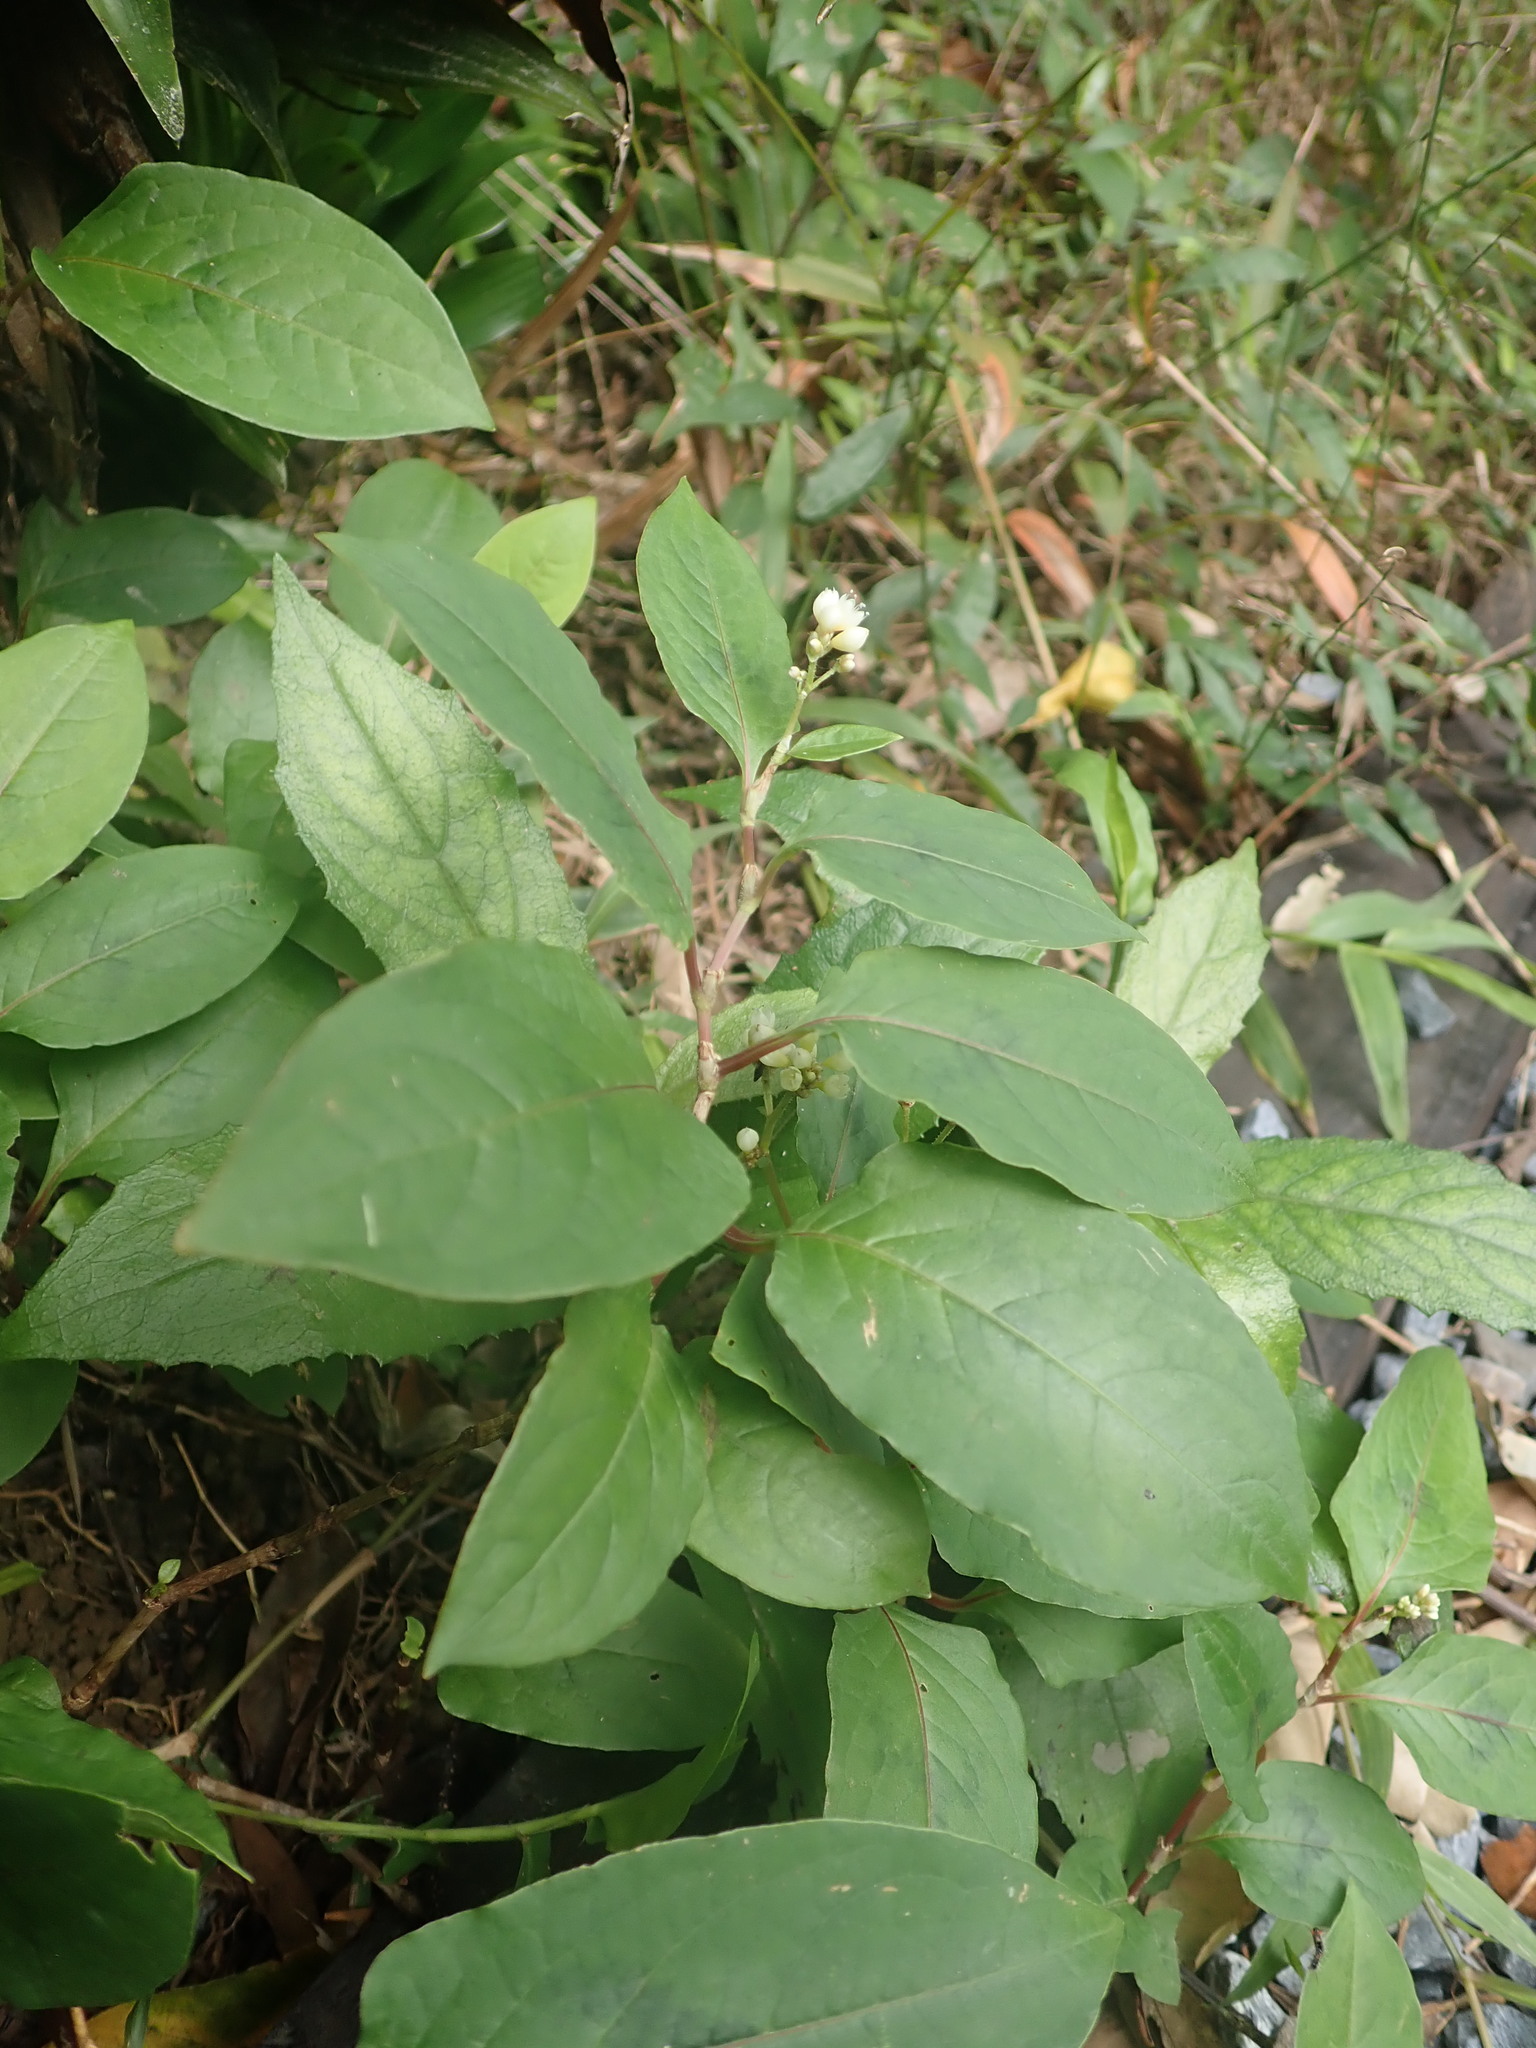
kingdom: Plantae
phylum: Tracheophyta
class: Magnoliopsida
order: Caryophyllales
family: Polygonaceae
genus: Persicaria
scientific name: Persicaria chinensis
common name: Chinese knotweed
